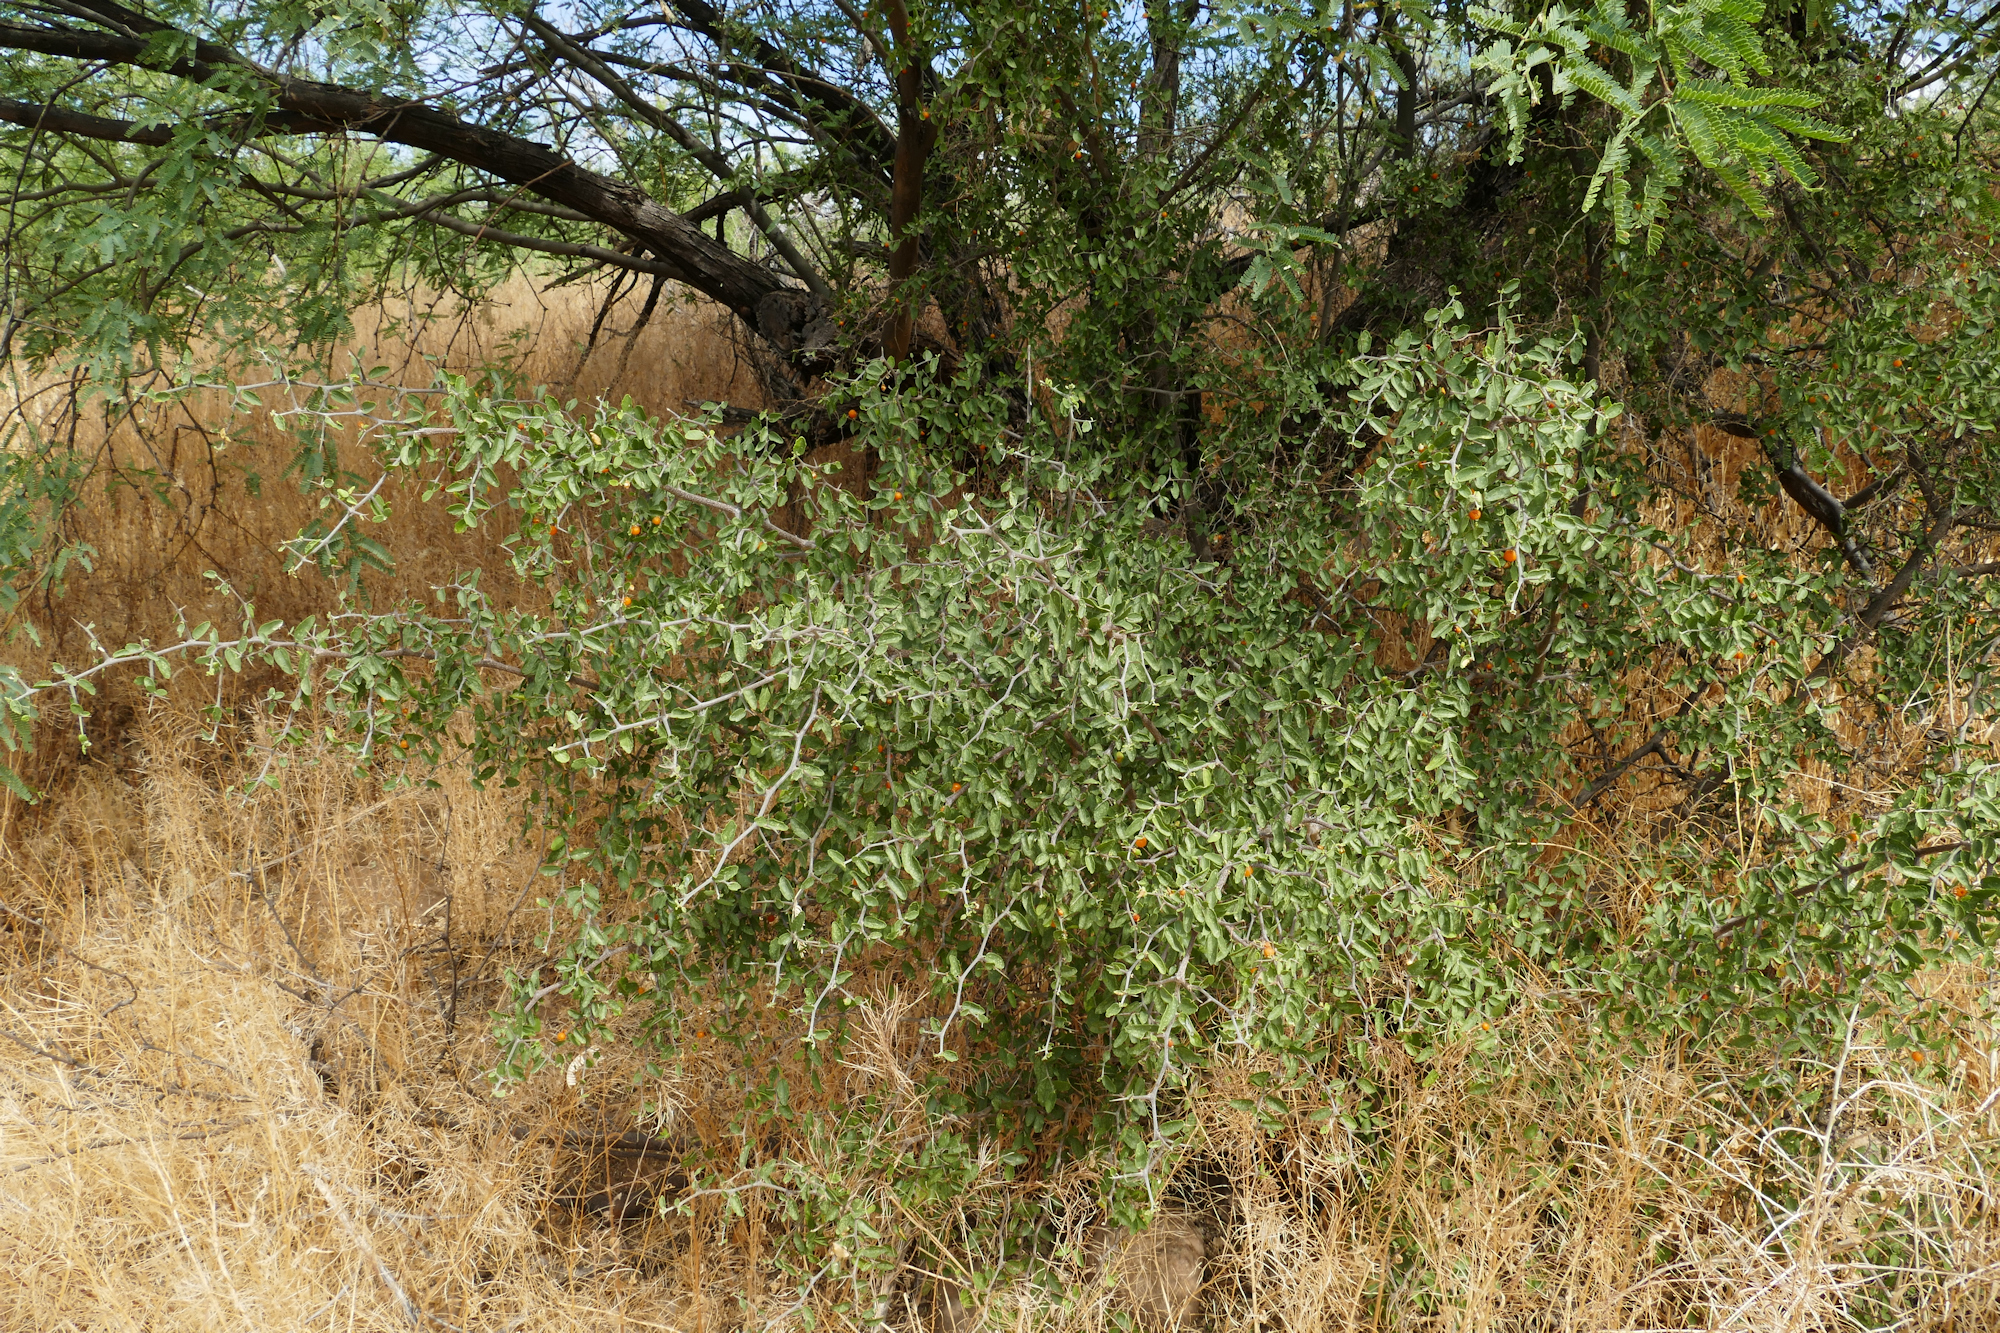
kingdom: Plantae
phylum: Tracheophyta
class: Magnoliopsida
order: Rosales
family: Cannabaceae
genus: Celtis
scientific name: Celtis pallida
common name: Desert hackberry
